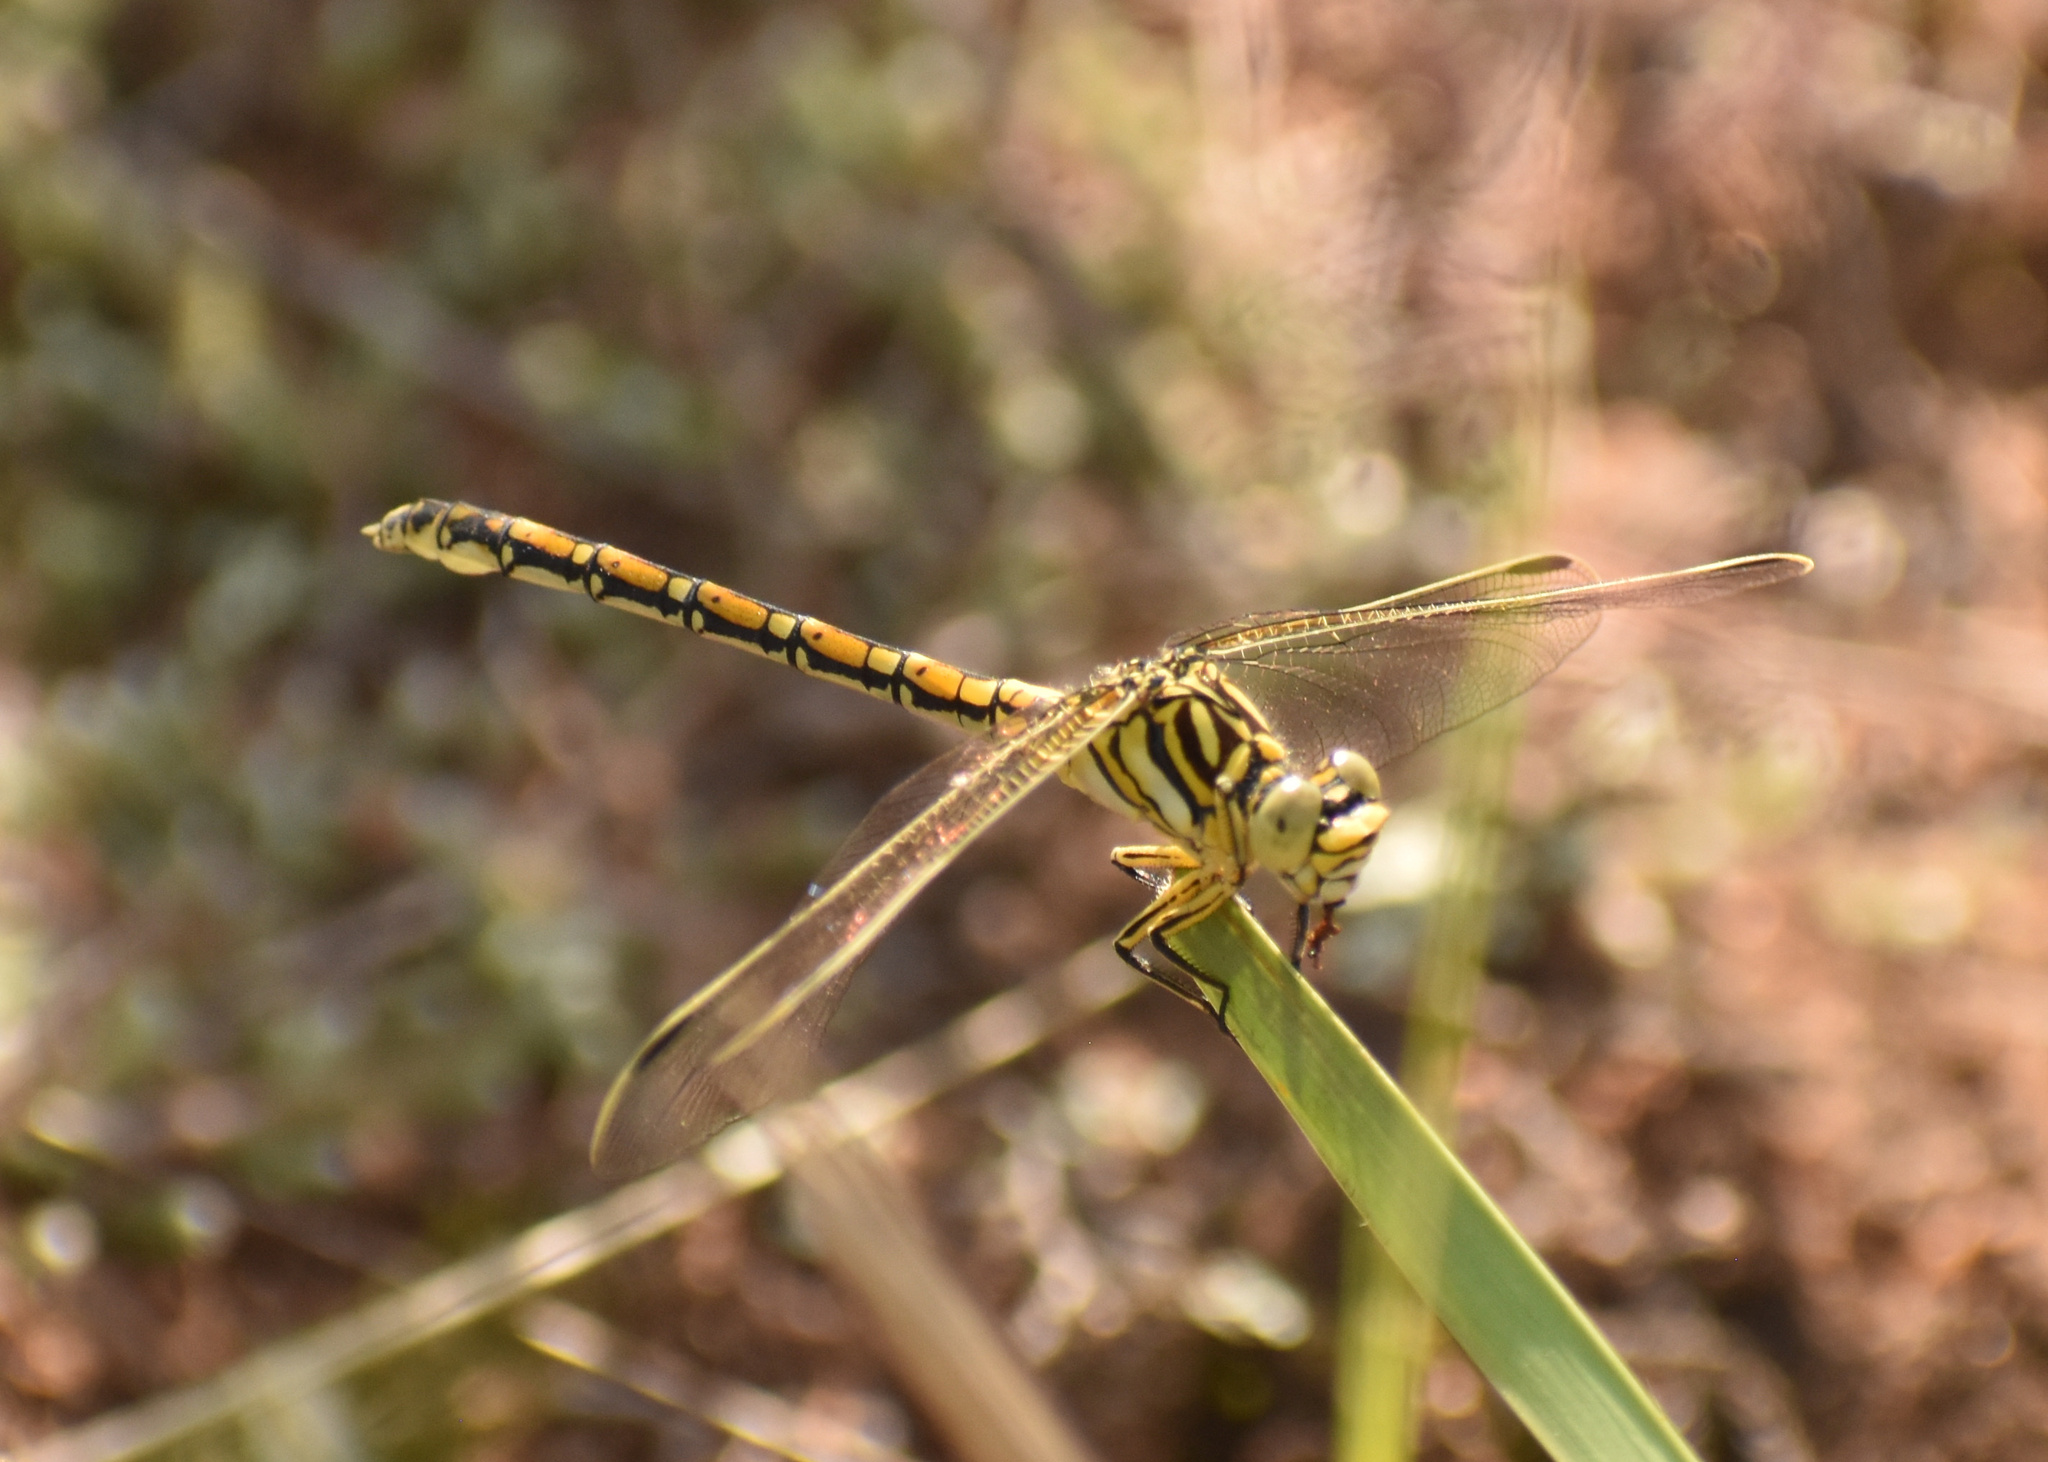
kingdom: Animalia
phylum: Arthropoda
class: Insecta
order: Odonata
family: Gomphidae
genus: Ceratogomphus
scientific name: Ceratogomphus pictus
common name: Common thorntail
